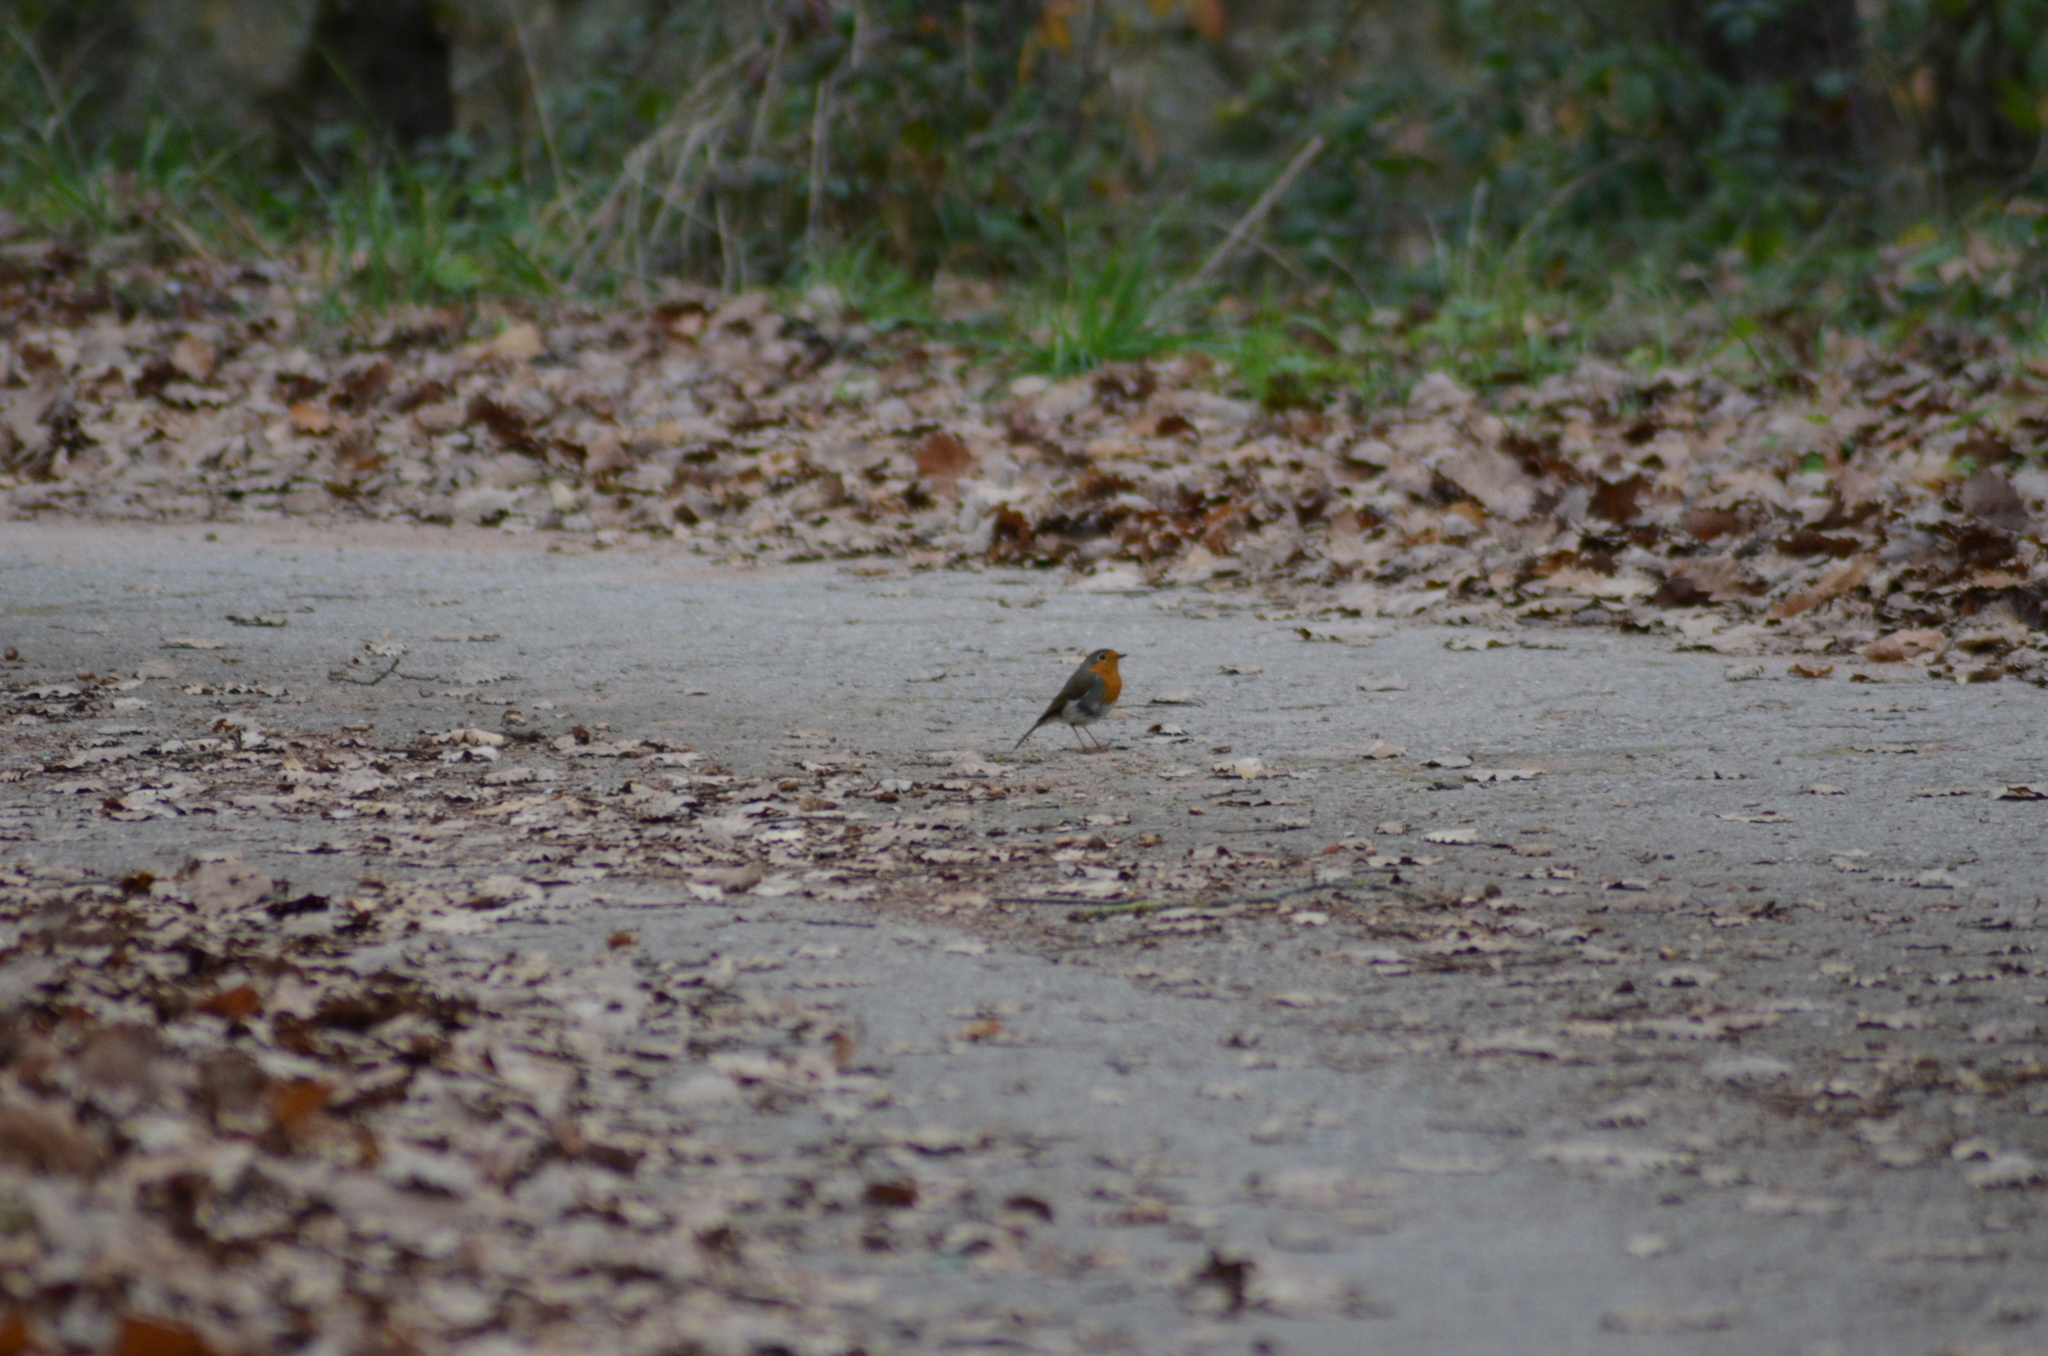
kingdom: Animalia
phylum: Chordata
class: Aves
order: Passeriformes
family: Muscicapidae
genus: Erithacus
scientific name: Erithacus rubecula
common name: European robin
